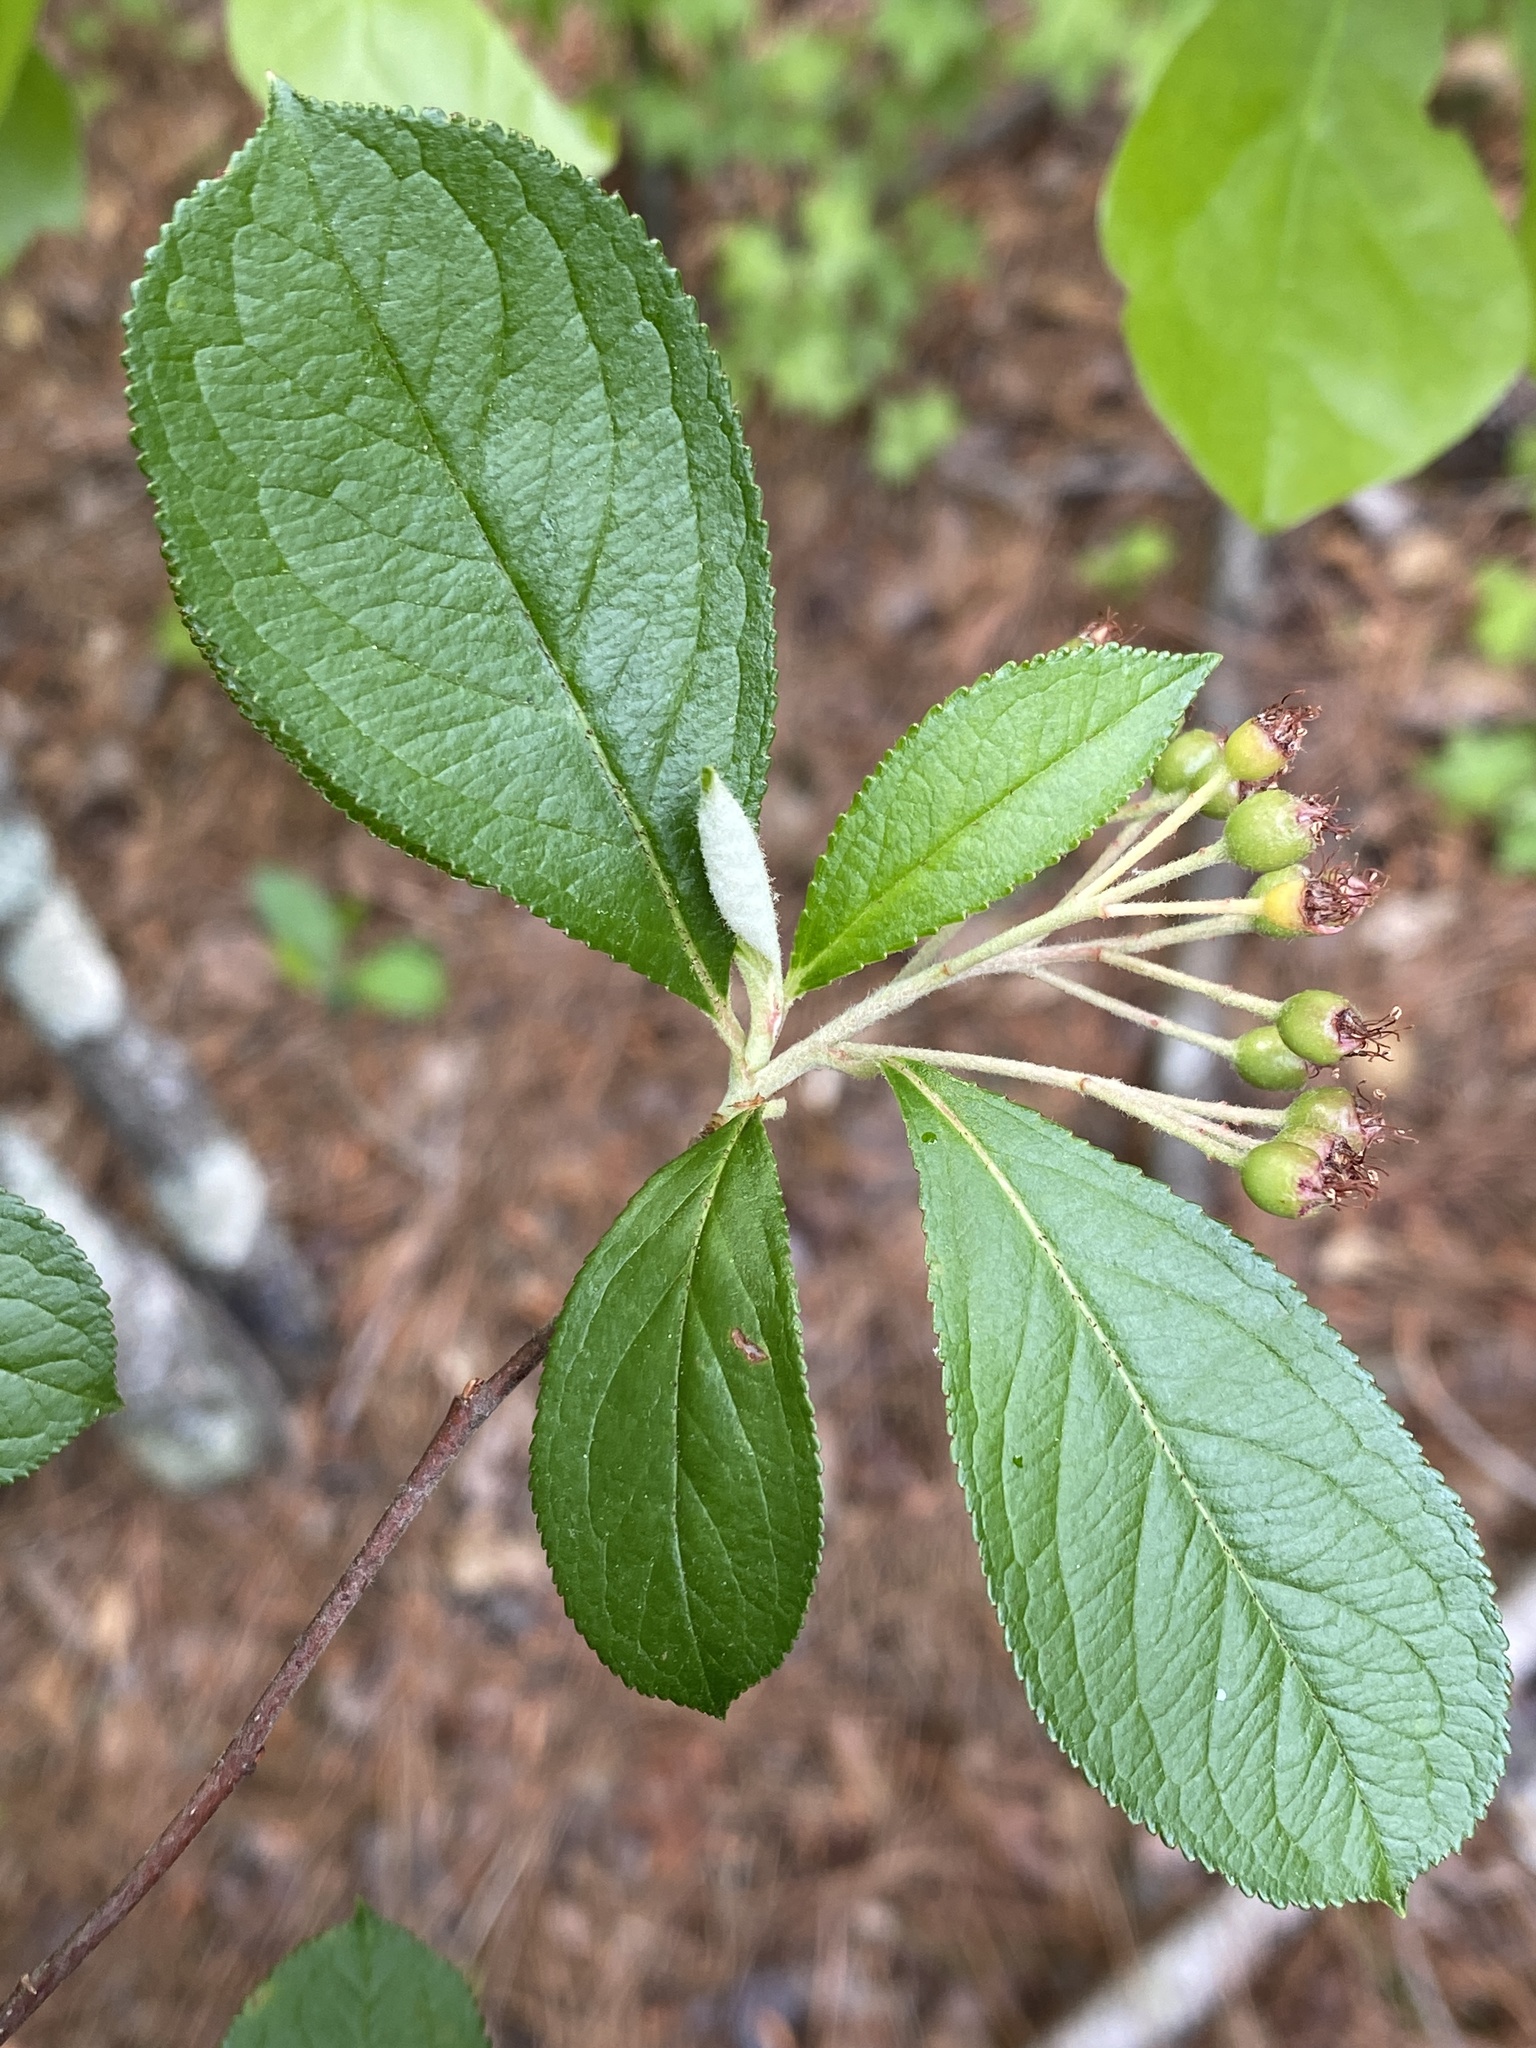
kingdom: Plantae
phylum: Tracheophyta
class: Magnoliopsida
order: Rosales
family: Rosaceae
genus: Aronia
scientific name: Aronia arbutifolia
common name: Red chokeberry
